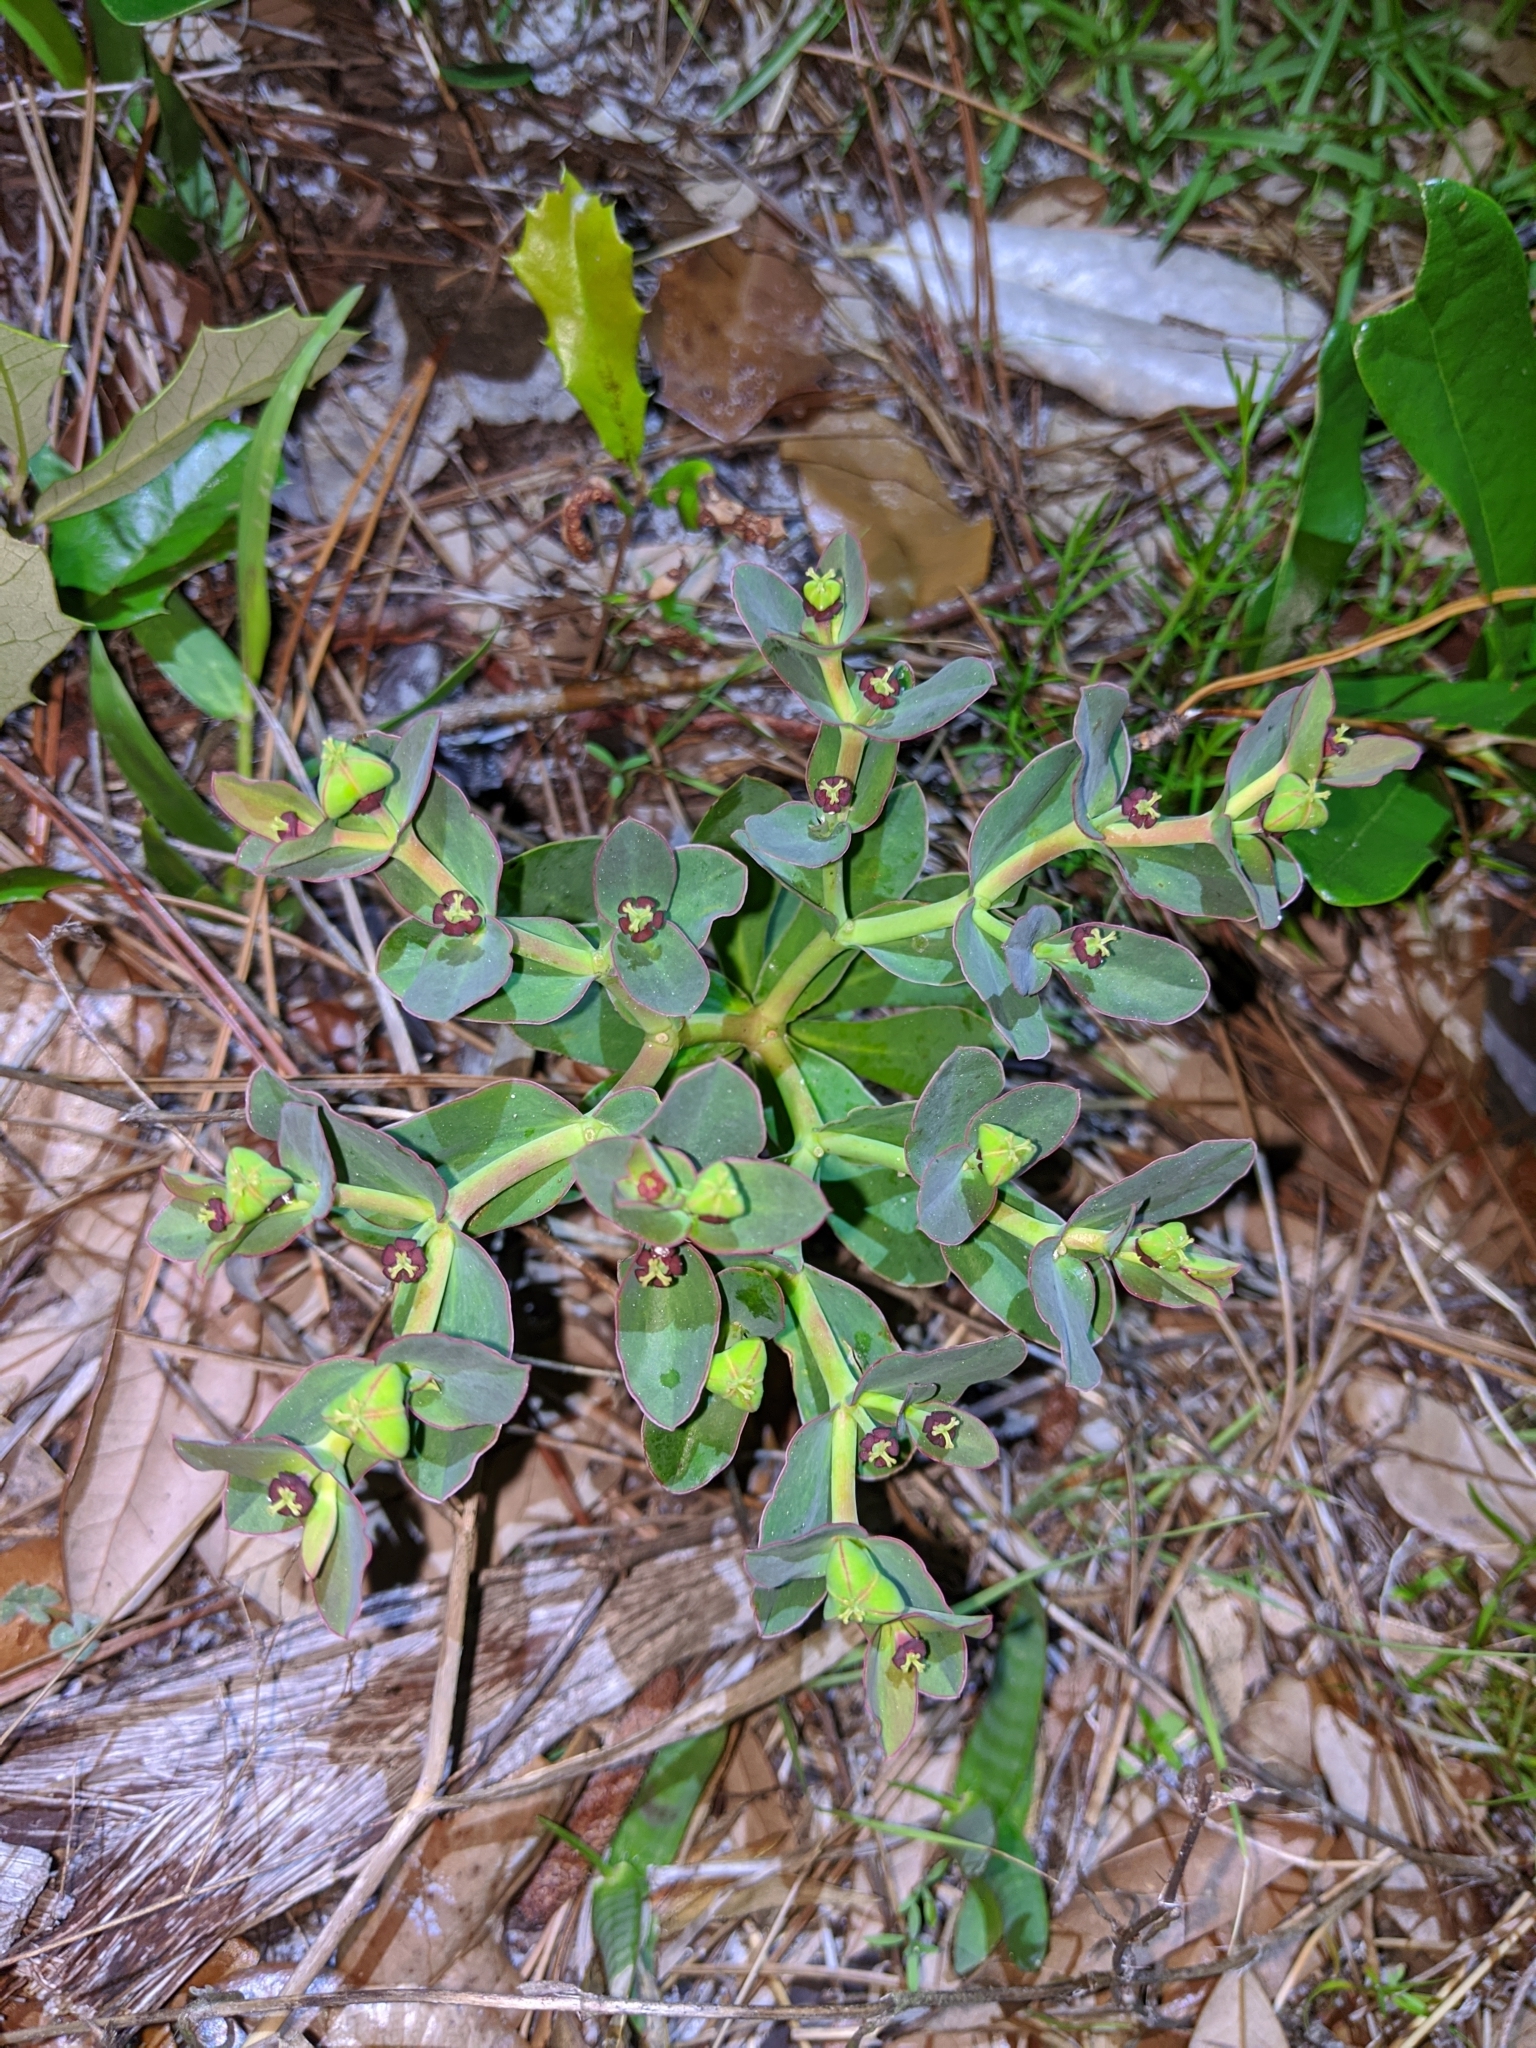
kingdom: Plantae
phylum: Tracheophyta
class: Magnoliopsida
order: Malpighiales
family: Euphorbiaceae
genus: Euphorbia
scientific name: Euphorbia telephioides
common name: Telephus spurge
